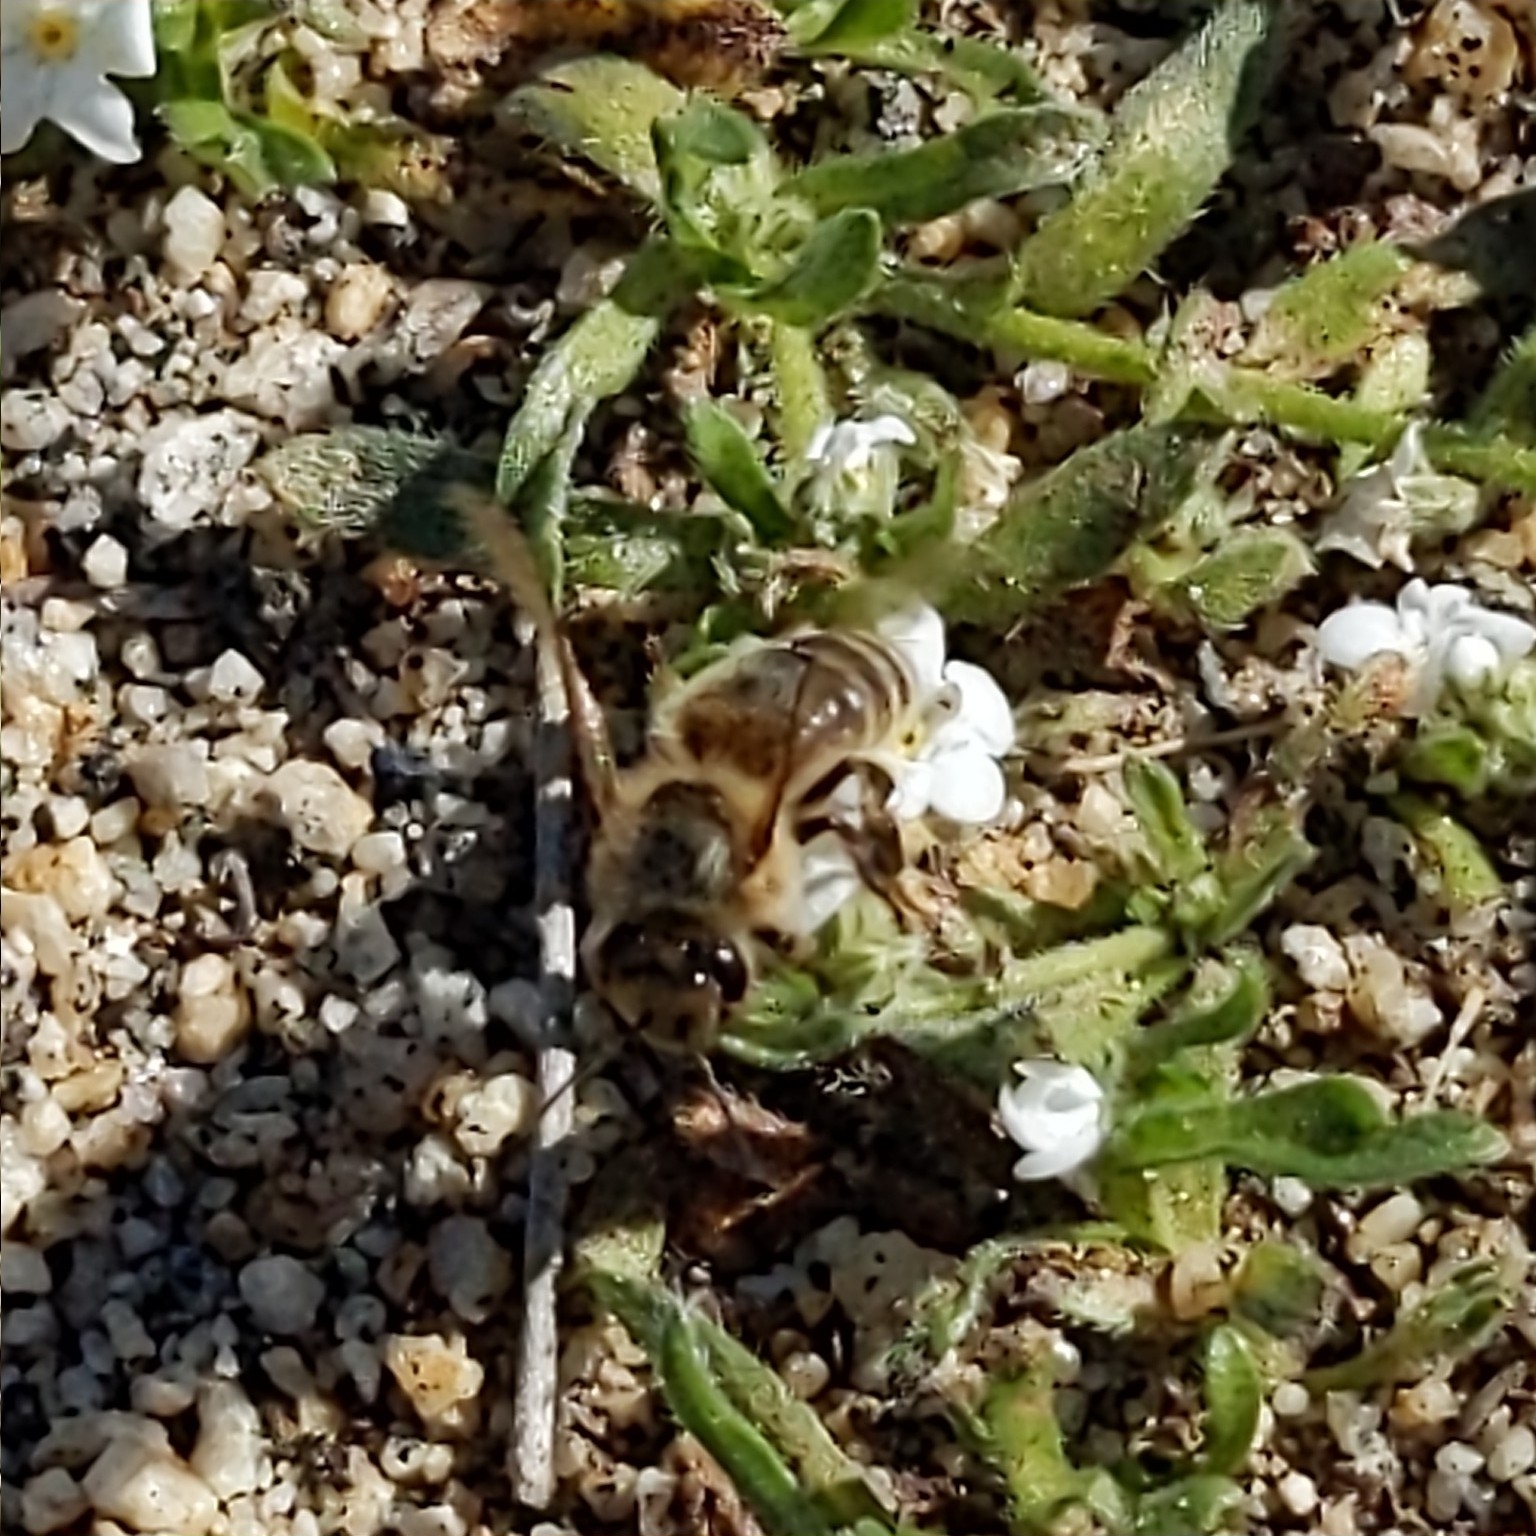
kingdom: Animalia
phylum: Arthropoda
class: Insecta
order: Hymenoptera
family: Apidae
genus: Apis
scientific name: Apis mellifera
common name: Honey bee
